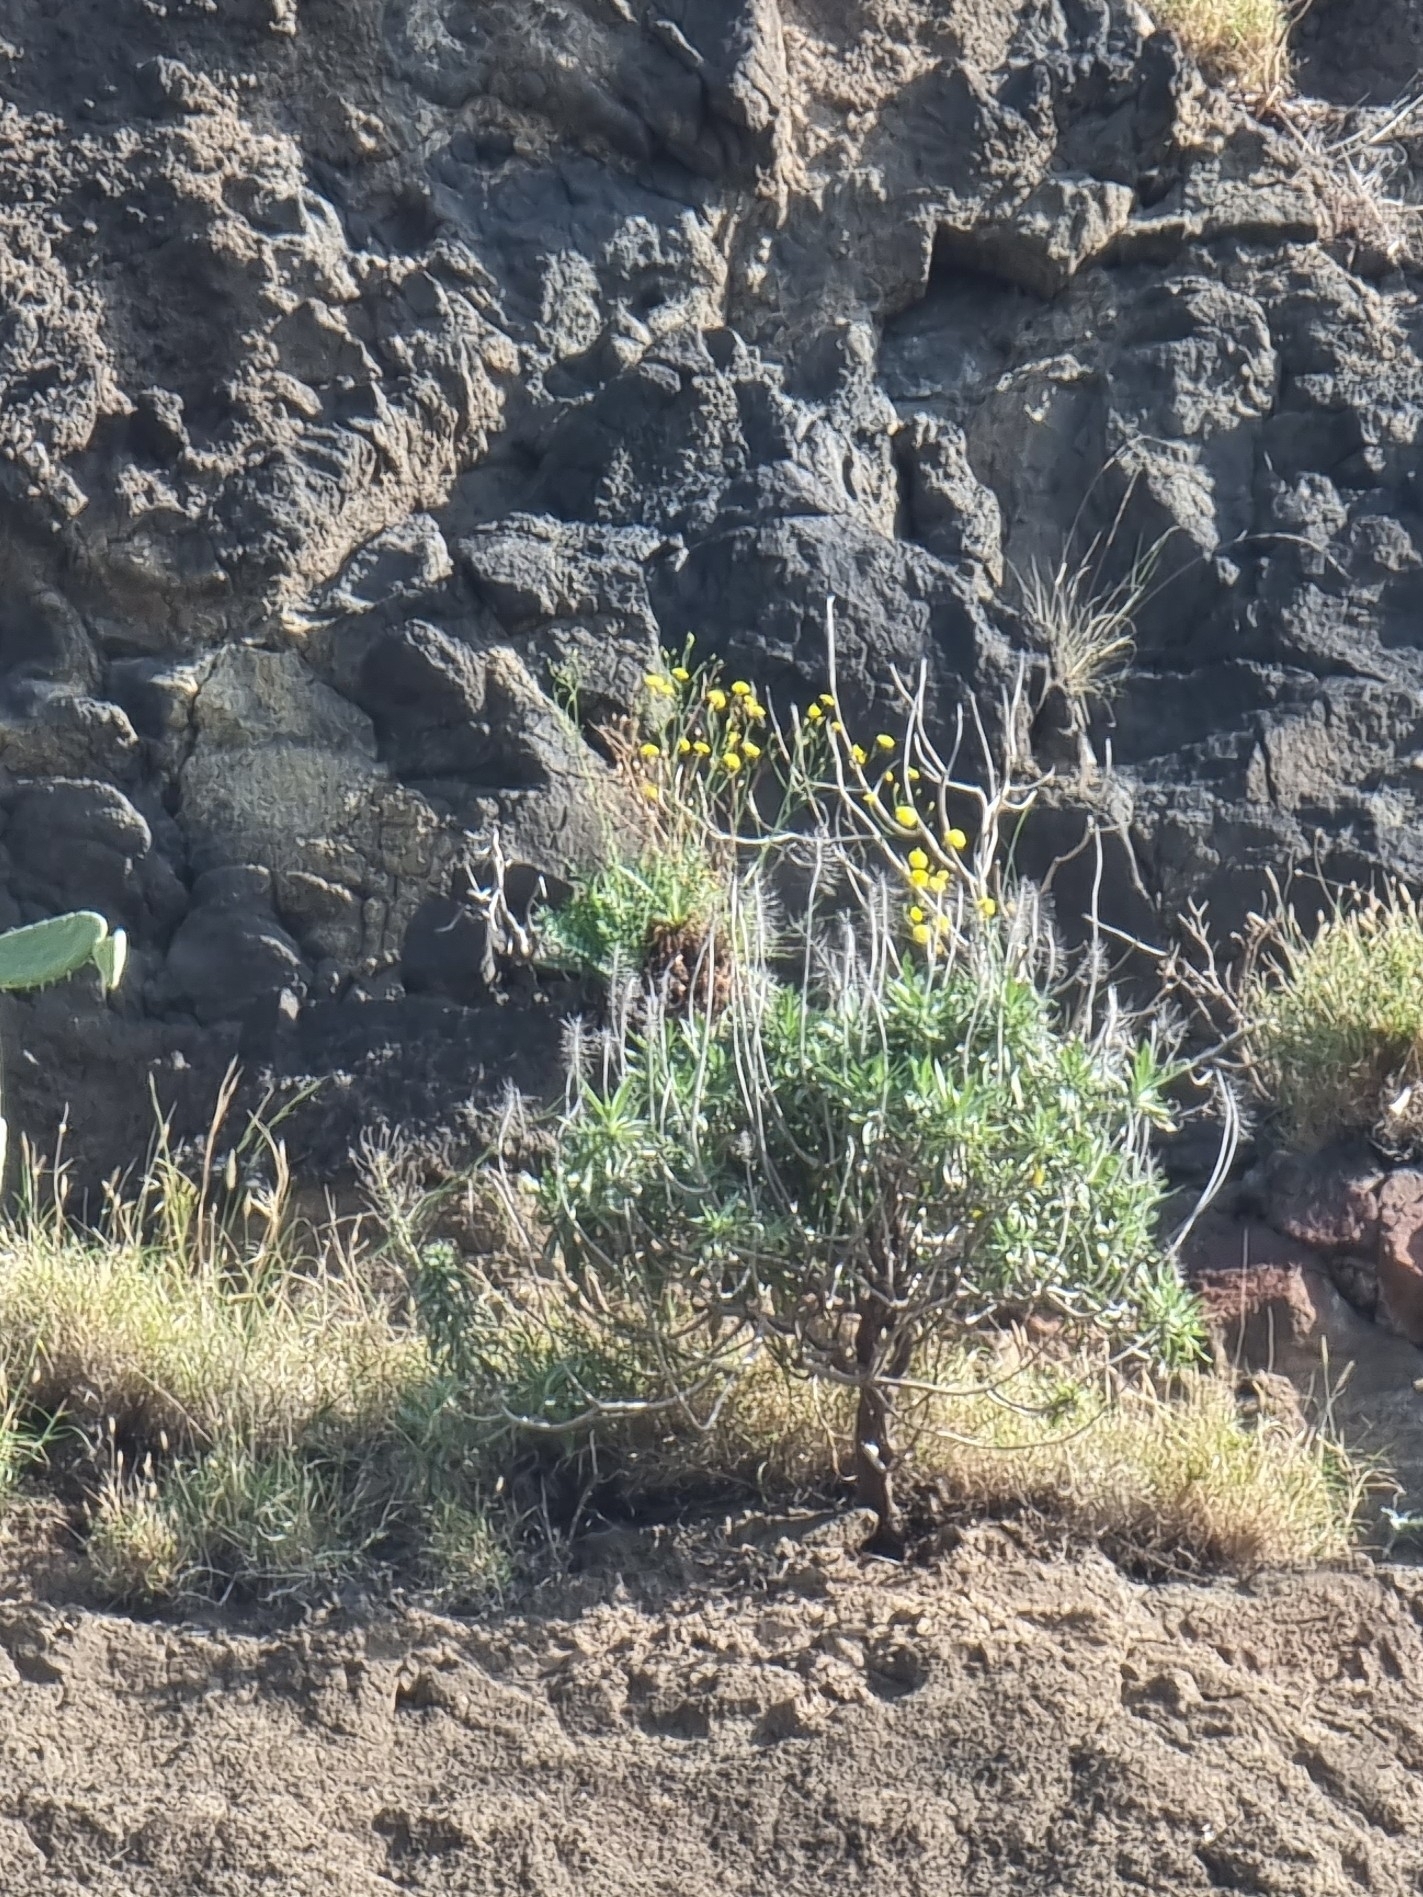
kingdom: Plantae
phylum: Tracheophyta
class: Magnoliopsida
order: Asterales
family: Asteraceae
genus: Sonchus
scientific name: Sonchus ustulatus
